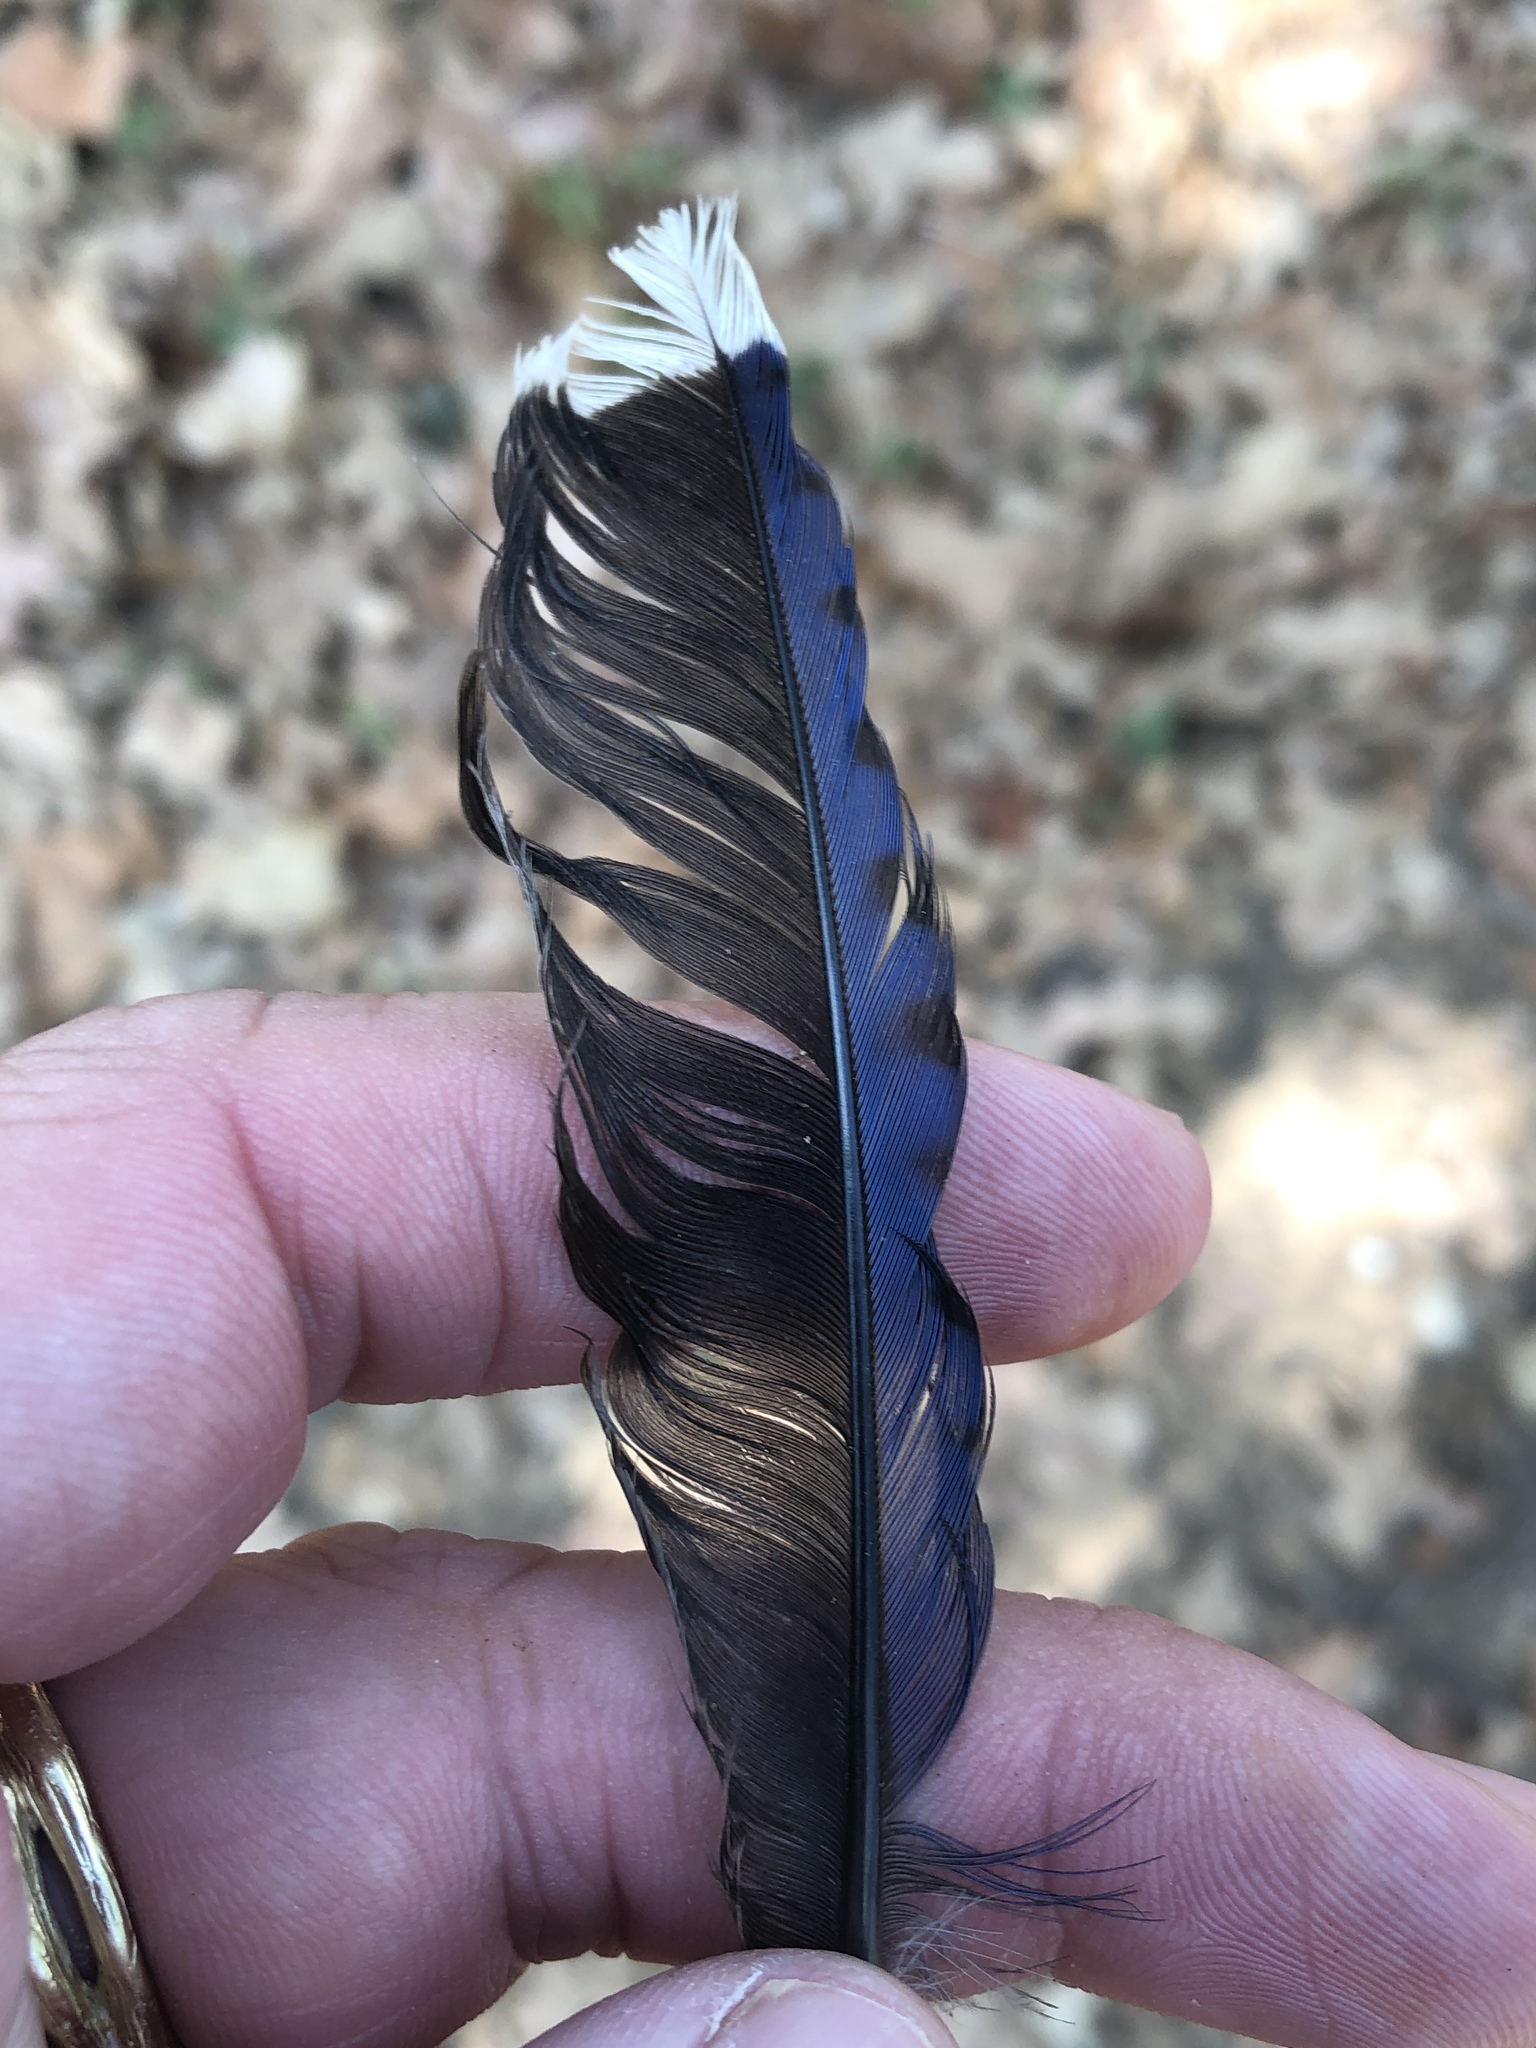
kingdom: Animalia
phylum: Chordata
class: Aves
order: Passeriformes
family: Corvidae
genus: Cyanocitta
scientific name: Cyanocitta cristata
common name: Blue jay
